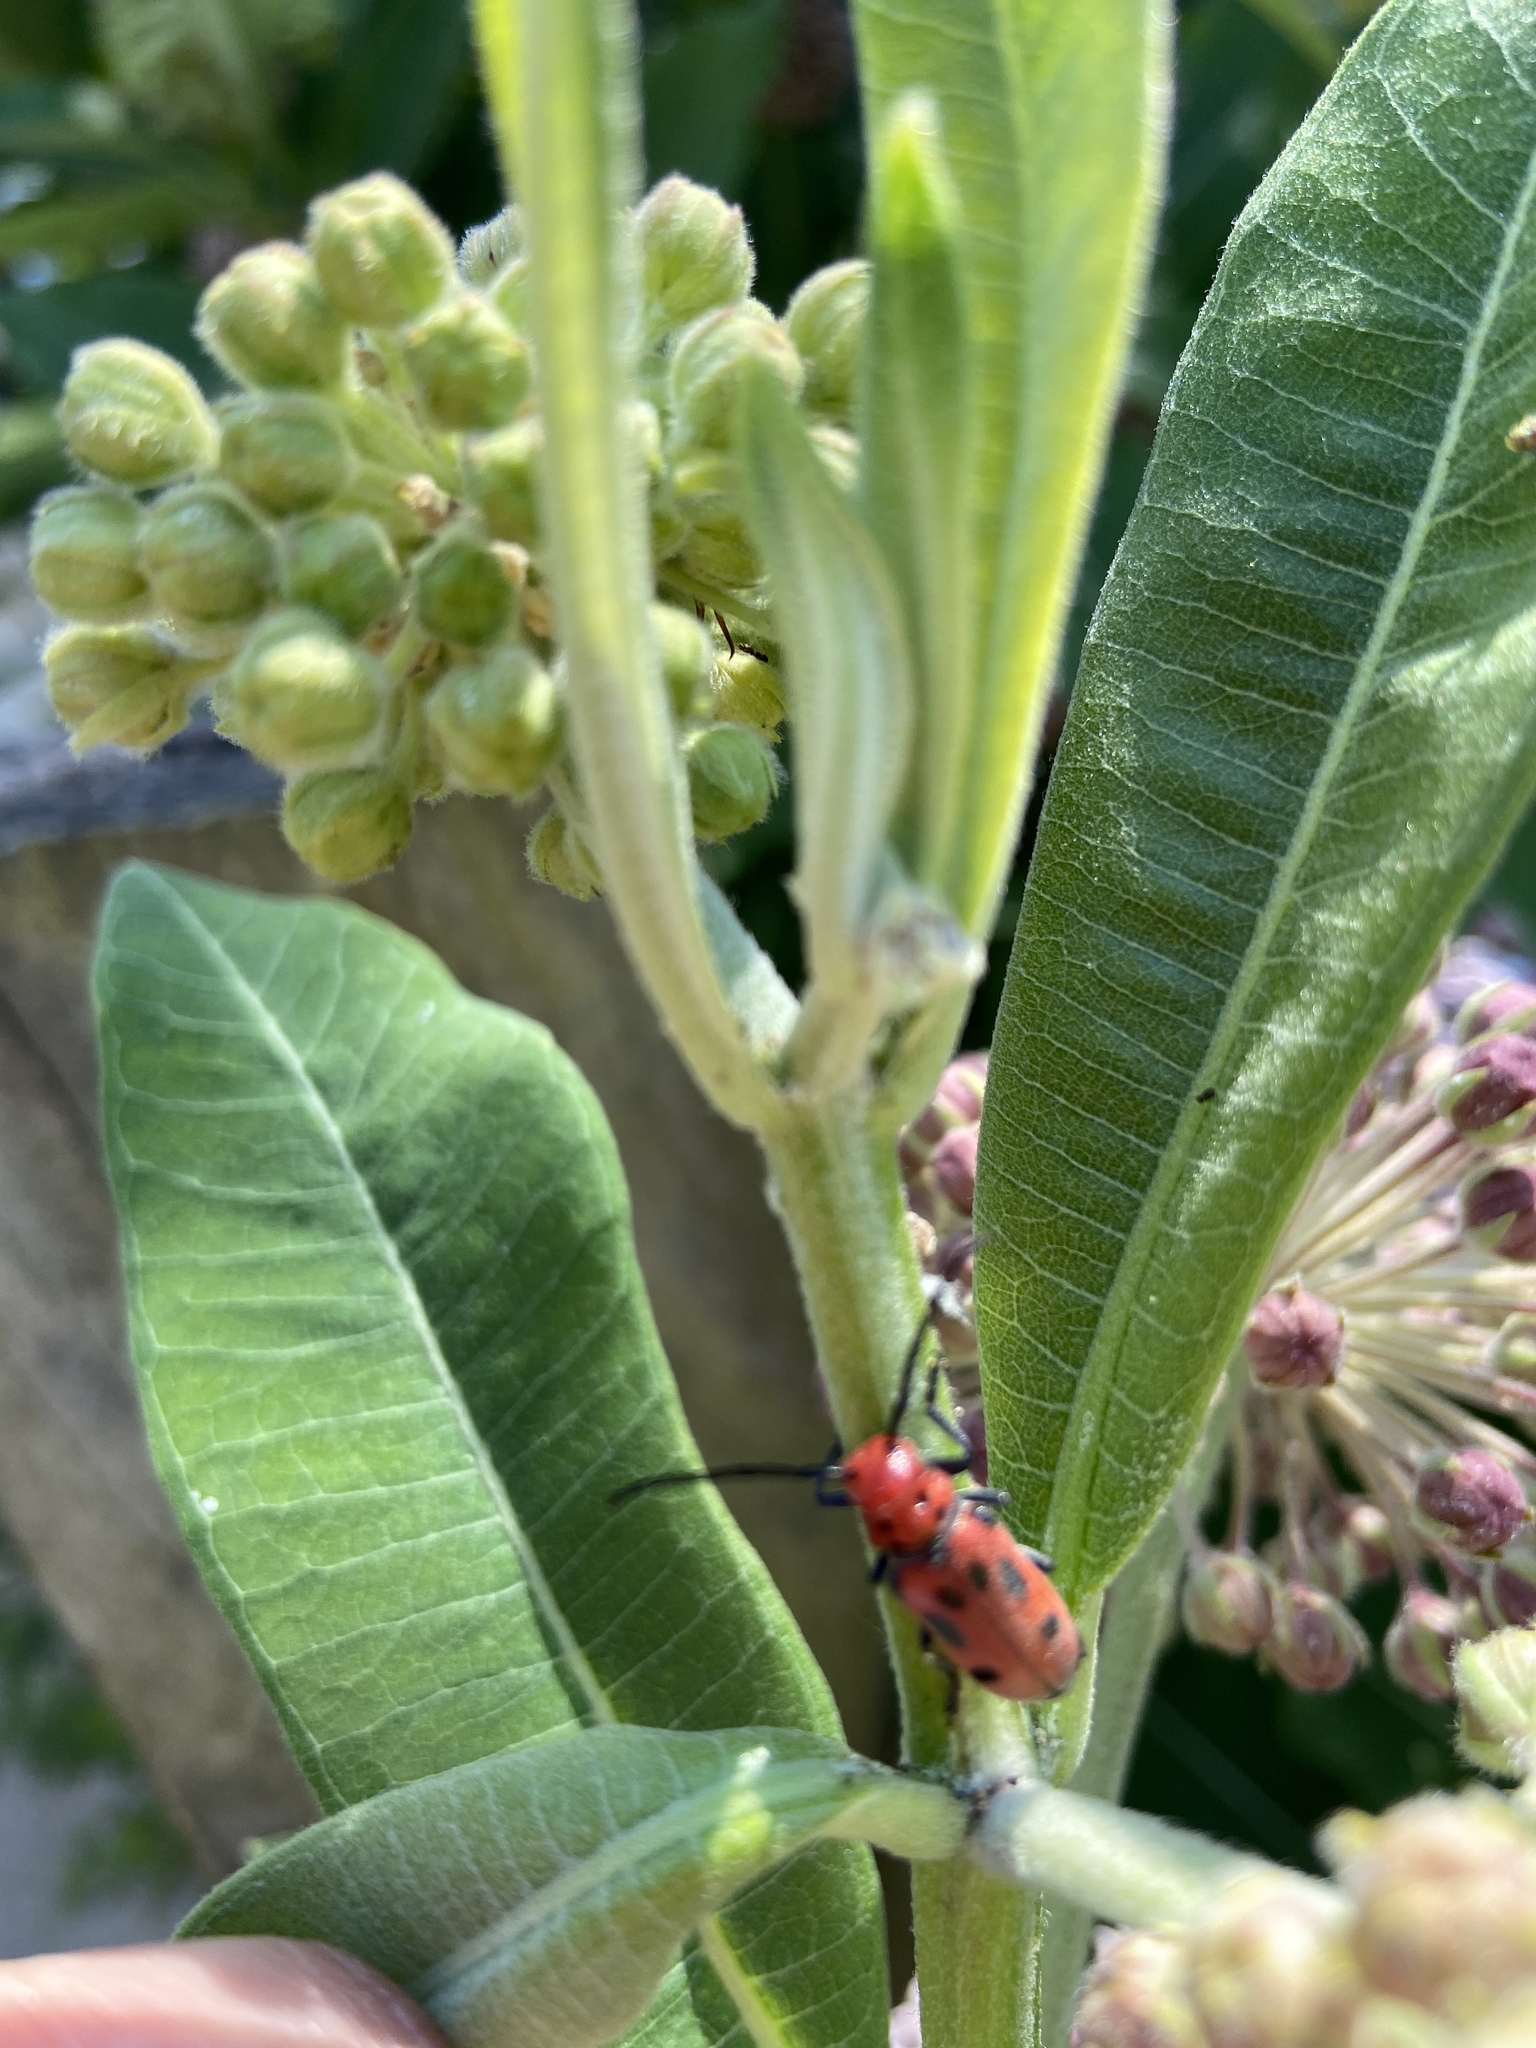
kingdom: Animalia
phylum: Arthropoda
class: Insecta
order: Coleoptera
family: Cerambycidae
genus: Tetraopes
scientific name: Tetraopes tetrophthalmus
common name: Red milkweed beetle
